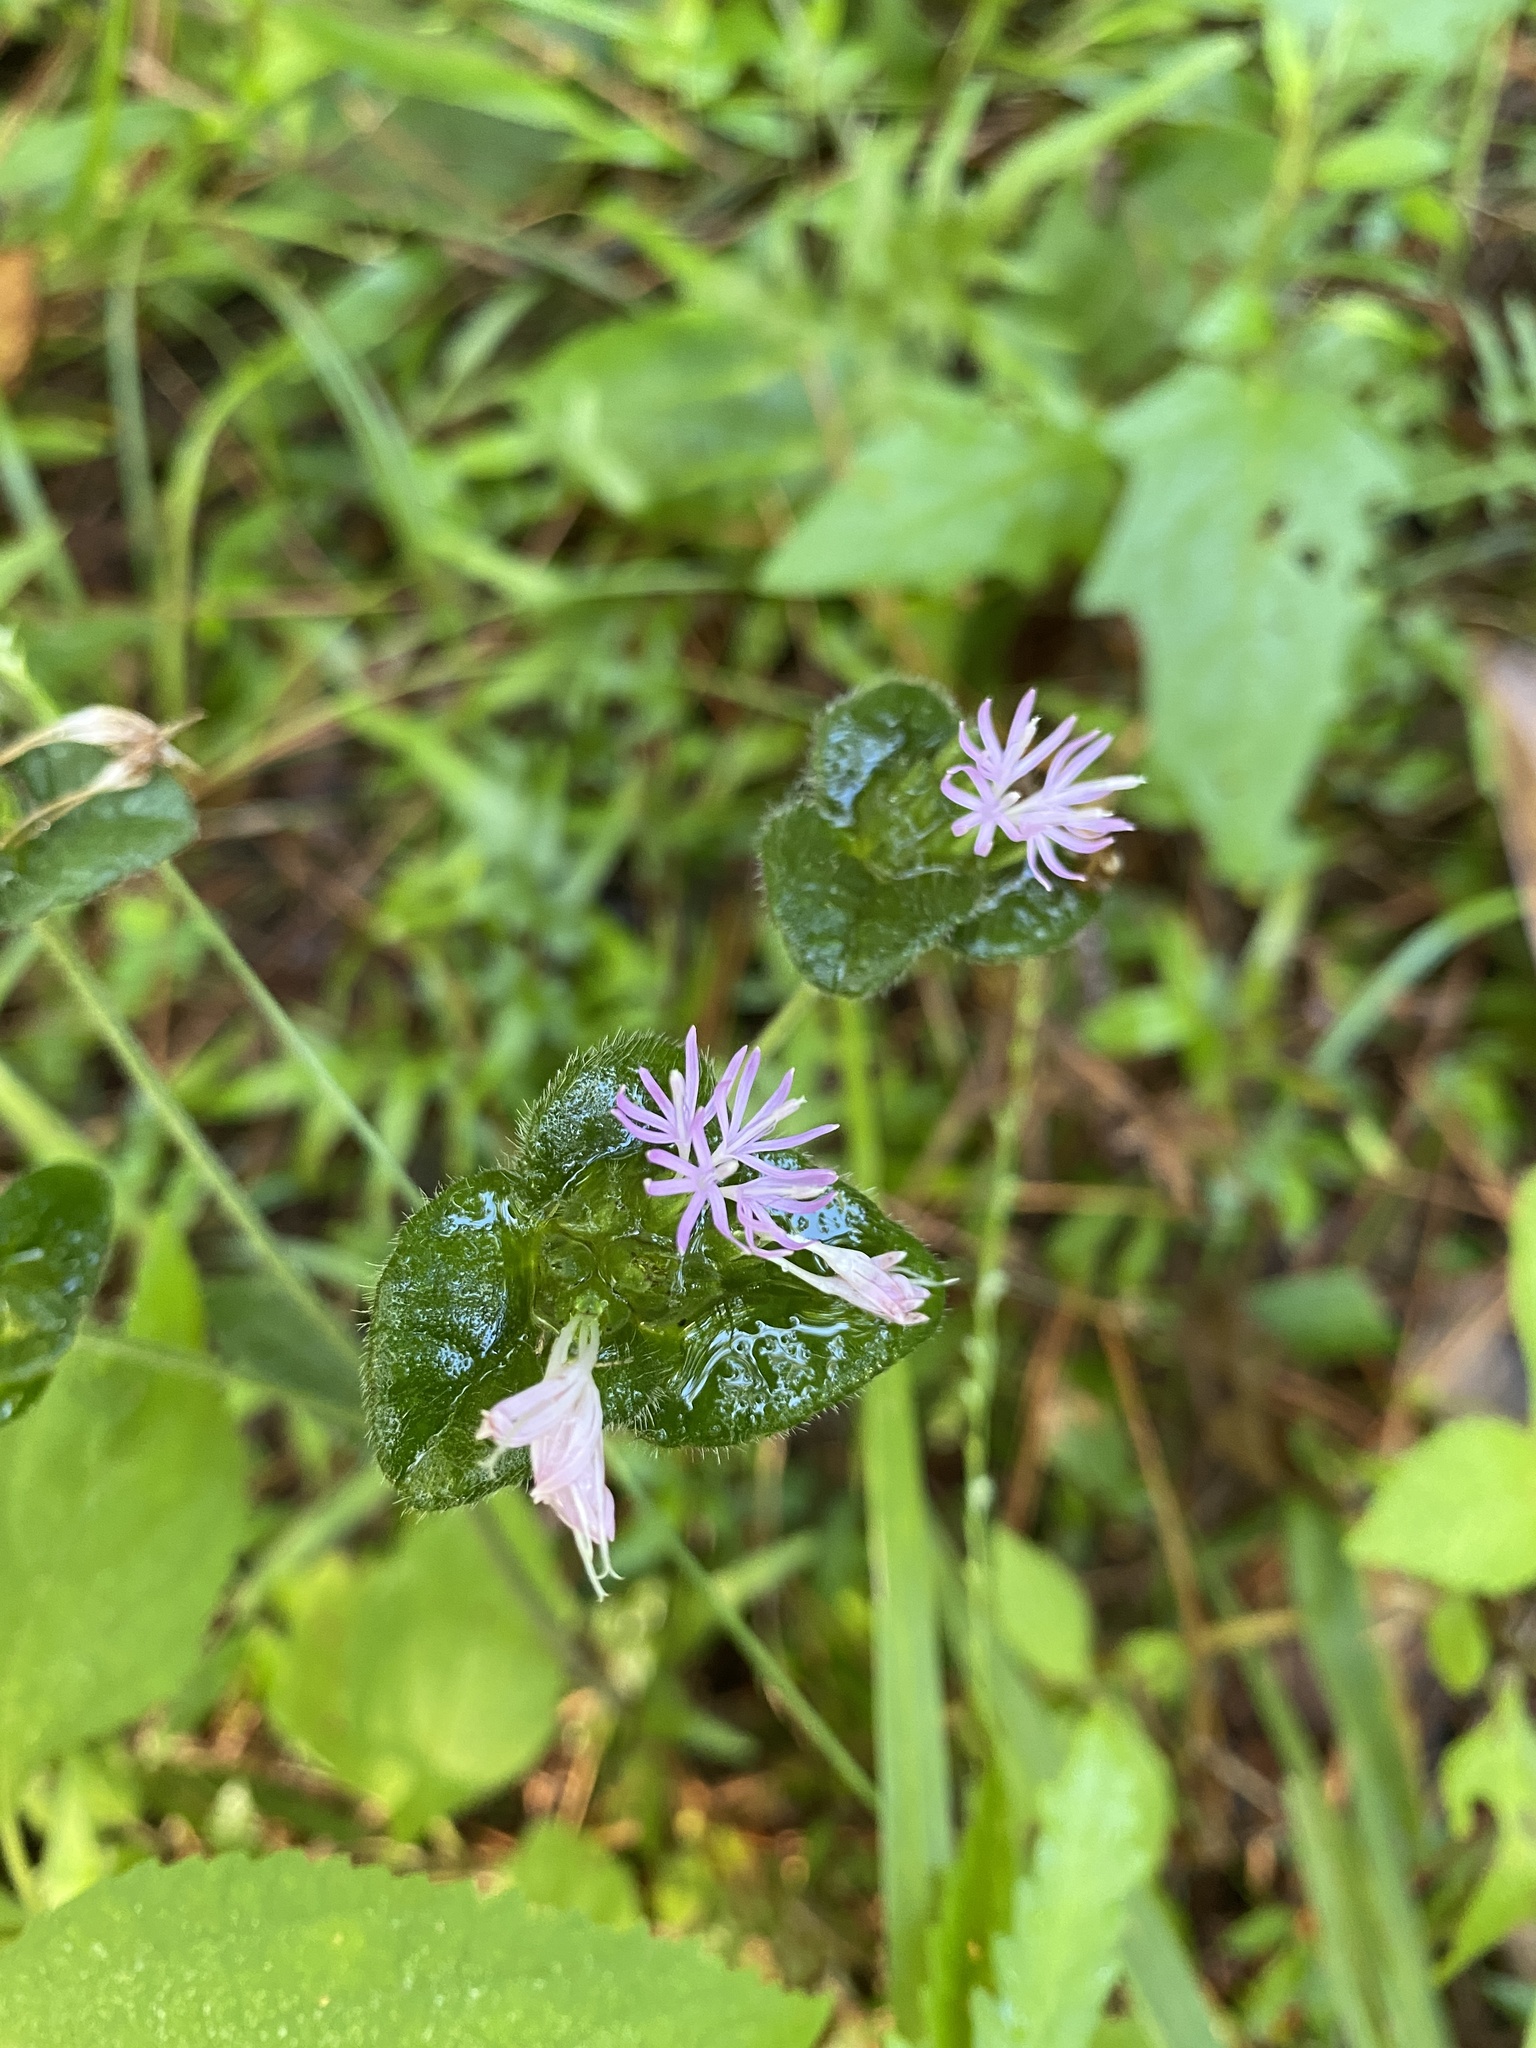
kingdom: Plantae
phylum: Tracheophyta
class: Magnoliopsida
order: Asterales
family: Asteraceae
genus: Elephantopus
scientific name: Elephantopus tomentosus
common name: Tobacco-weed
